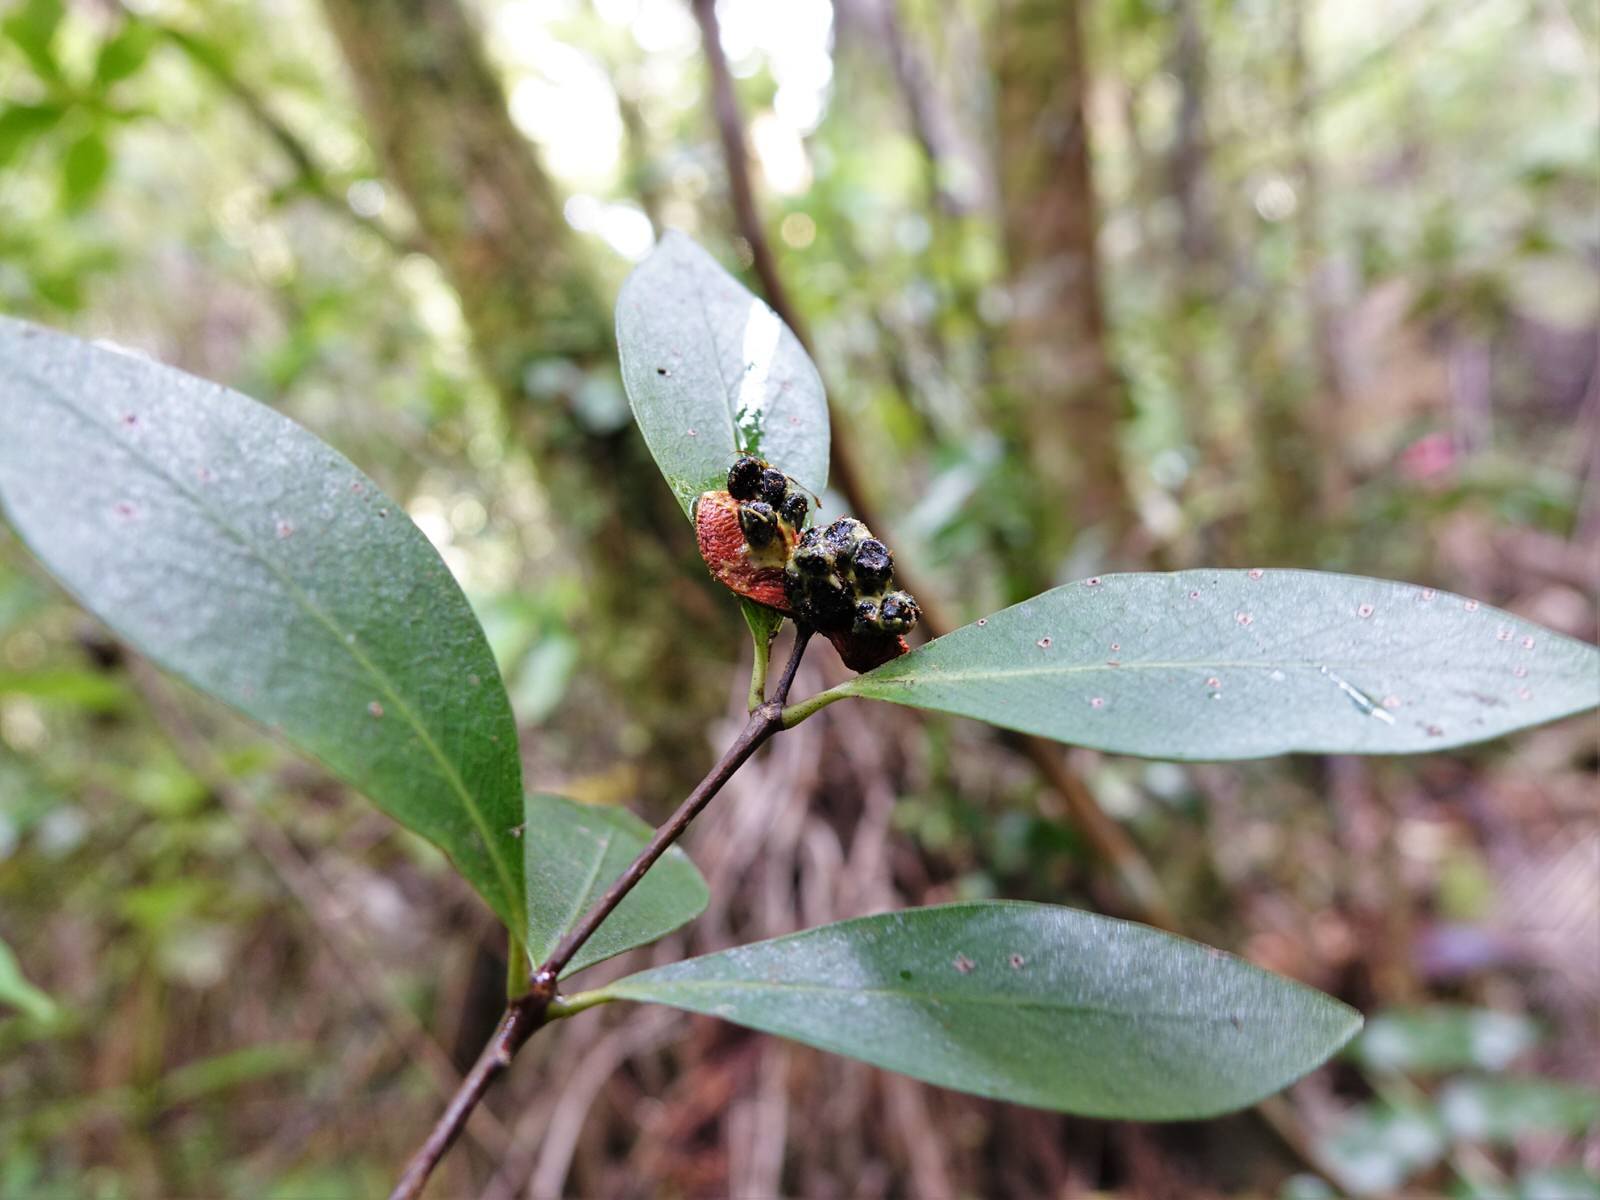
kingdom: Plantae
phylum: Tracheophyta
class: Magnoliopsida
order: Apiales
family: Pittosporaceae
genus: Pittosporum
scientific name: Pittosporum cornifolium
